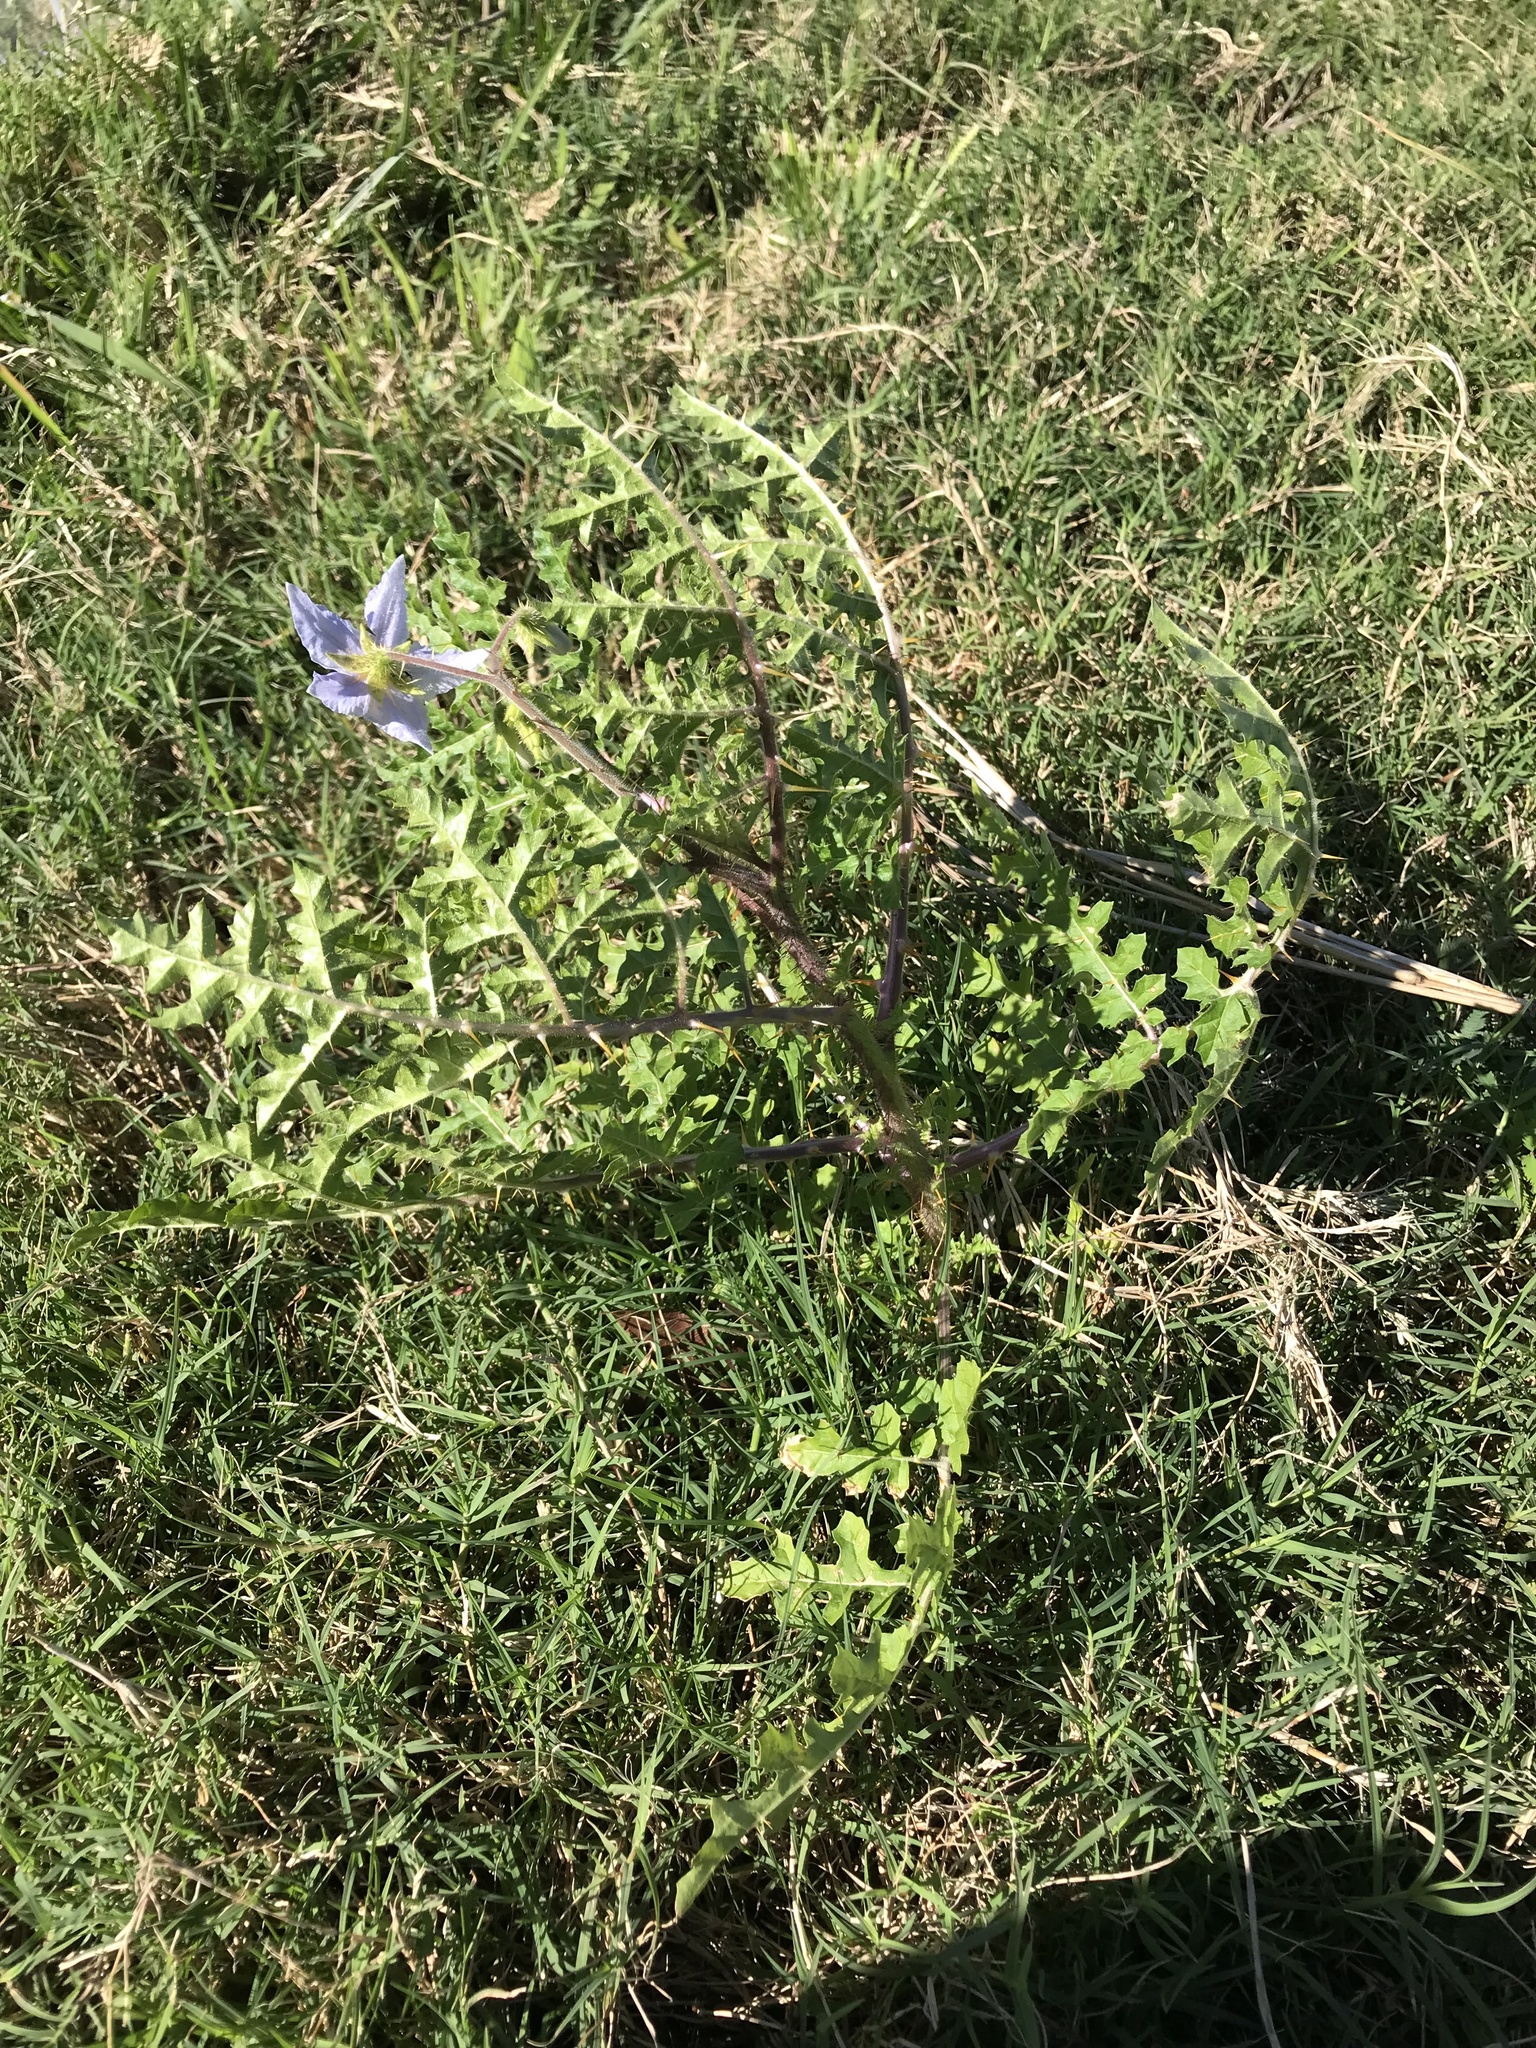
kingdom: Plantae
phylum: Tracheophyta
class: Magnoliopsida
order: Solanales
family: Solanaceae
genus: Solanum
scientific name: Solanum sisymbriifolium
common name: Red buffalo-bur
